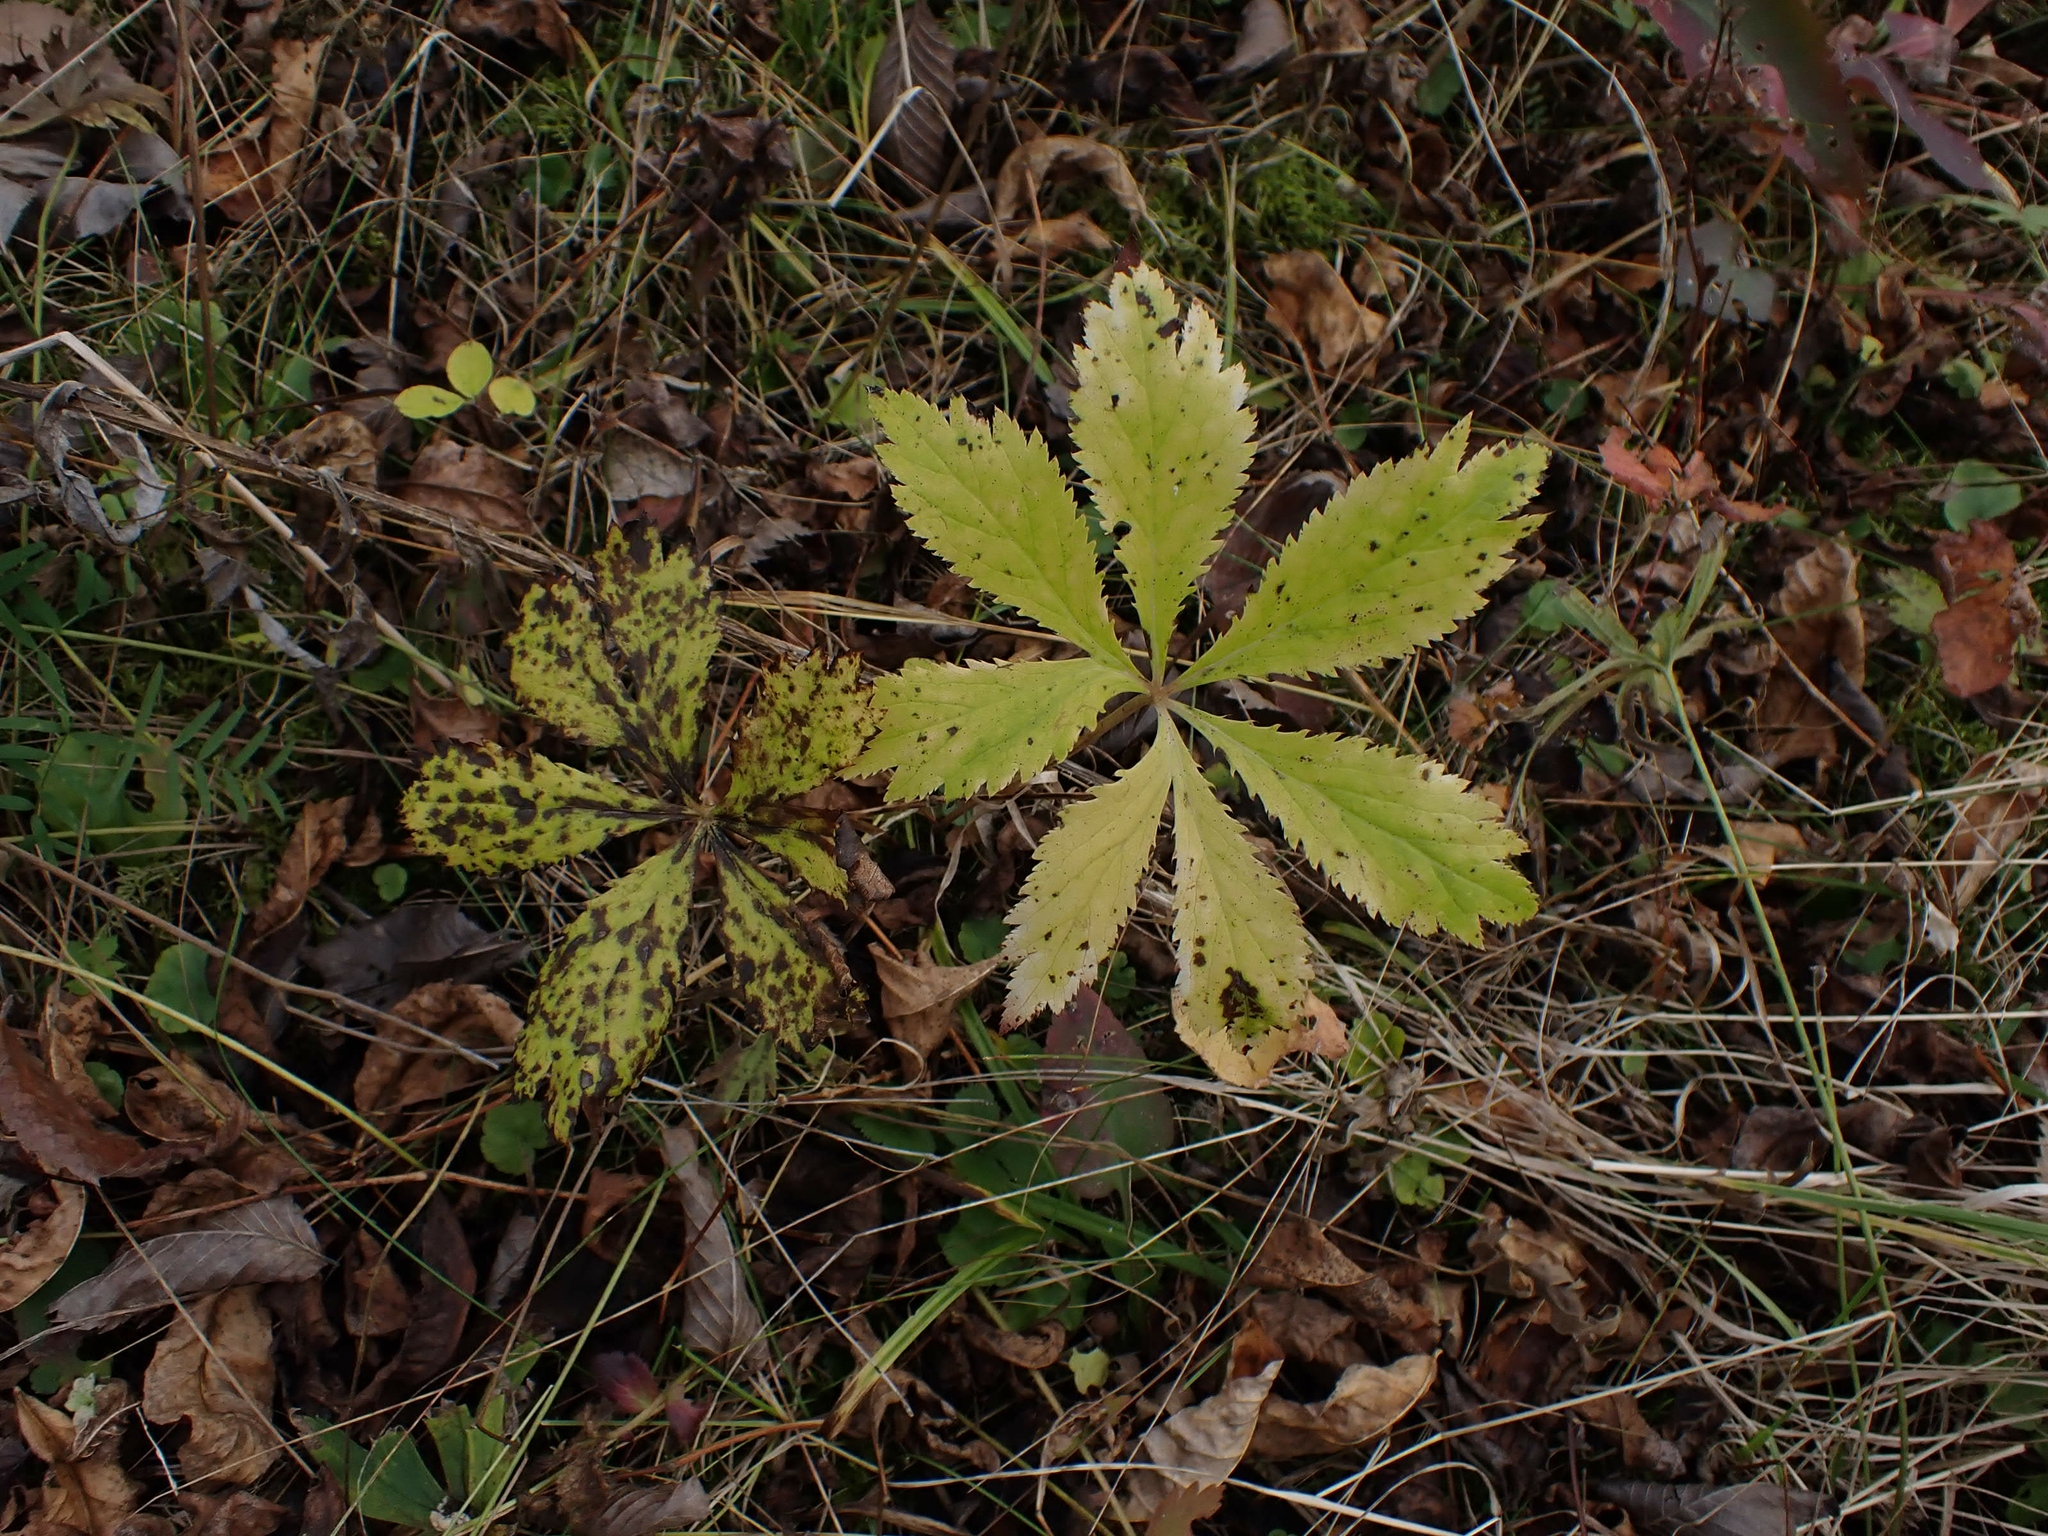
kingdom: Plantae
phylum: Tracheophyta
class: Magnoliopsida
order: Apiales
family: Apiaceae
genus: Sanicula
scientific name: Sanicula marilandica
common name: Black snakeroot
